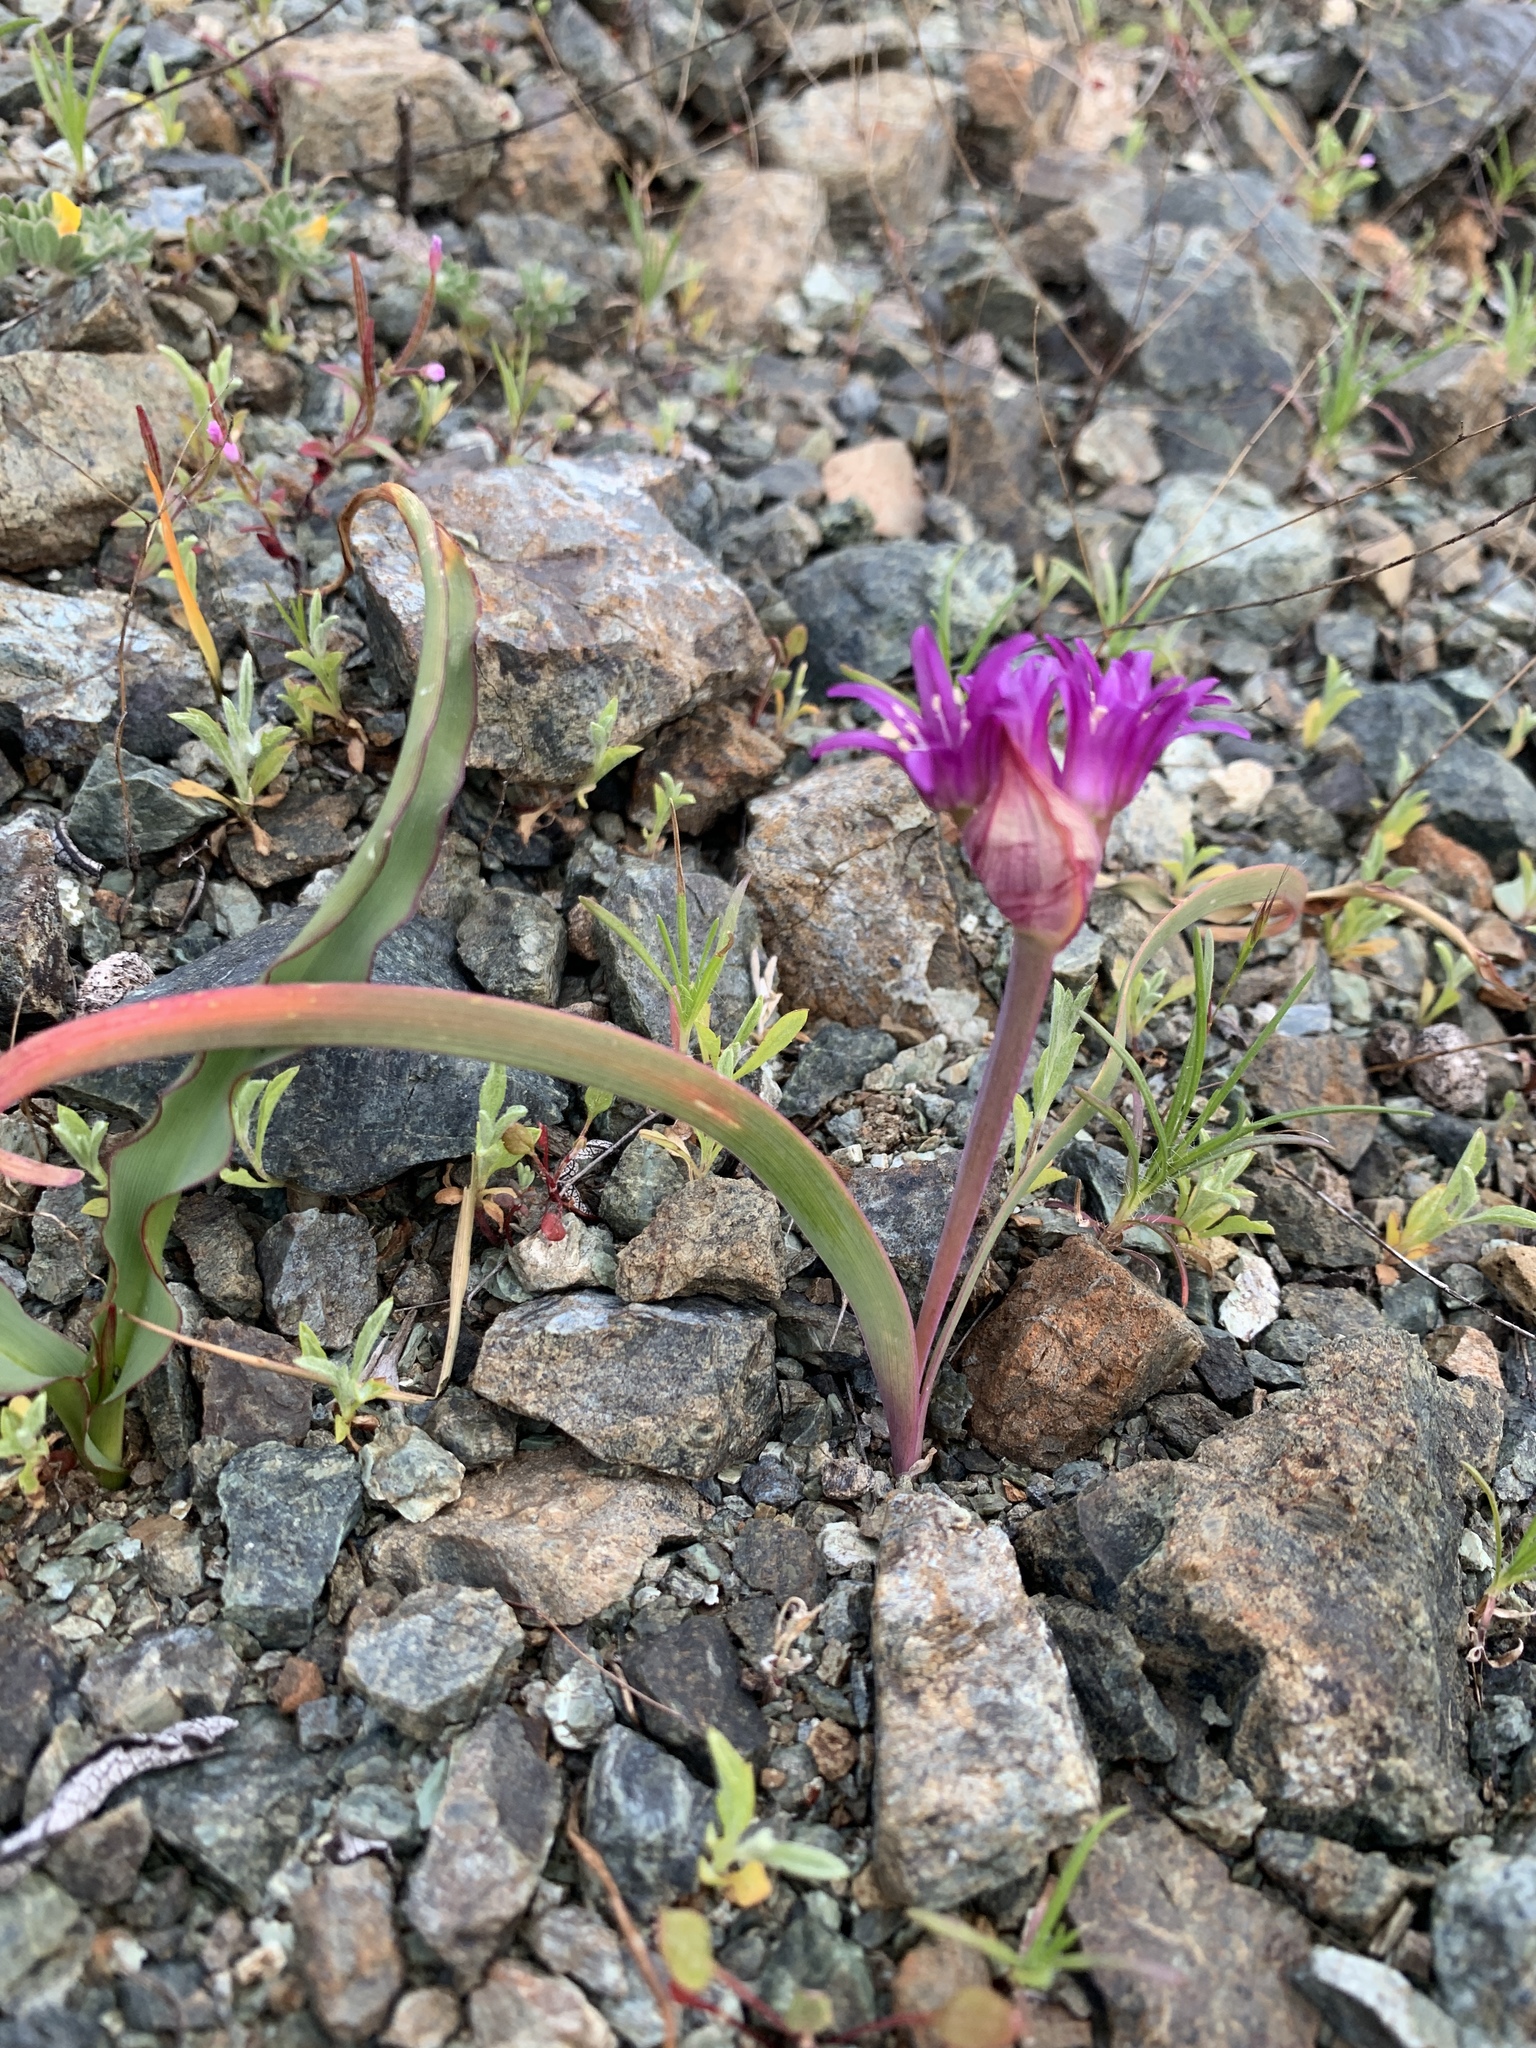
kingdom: Plantae
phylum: Tracheophyta
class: Liliopsida
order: Asparagales
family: Amaryllidaceae
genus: Allium
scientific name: Allium falcifolium
